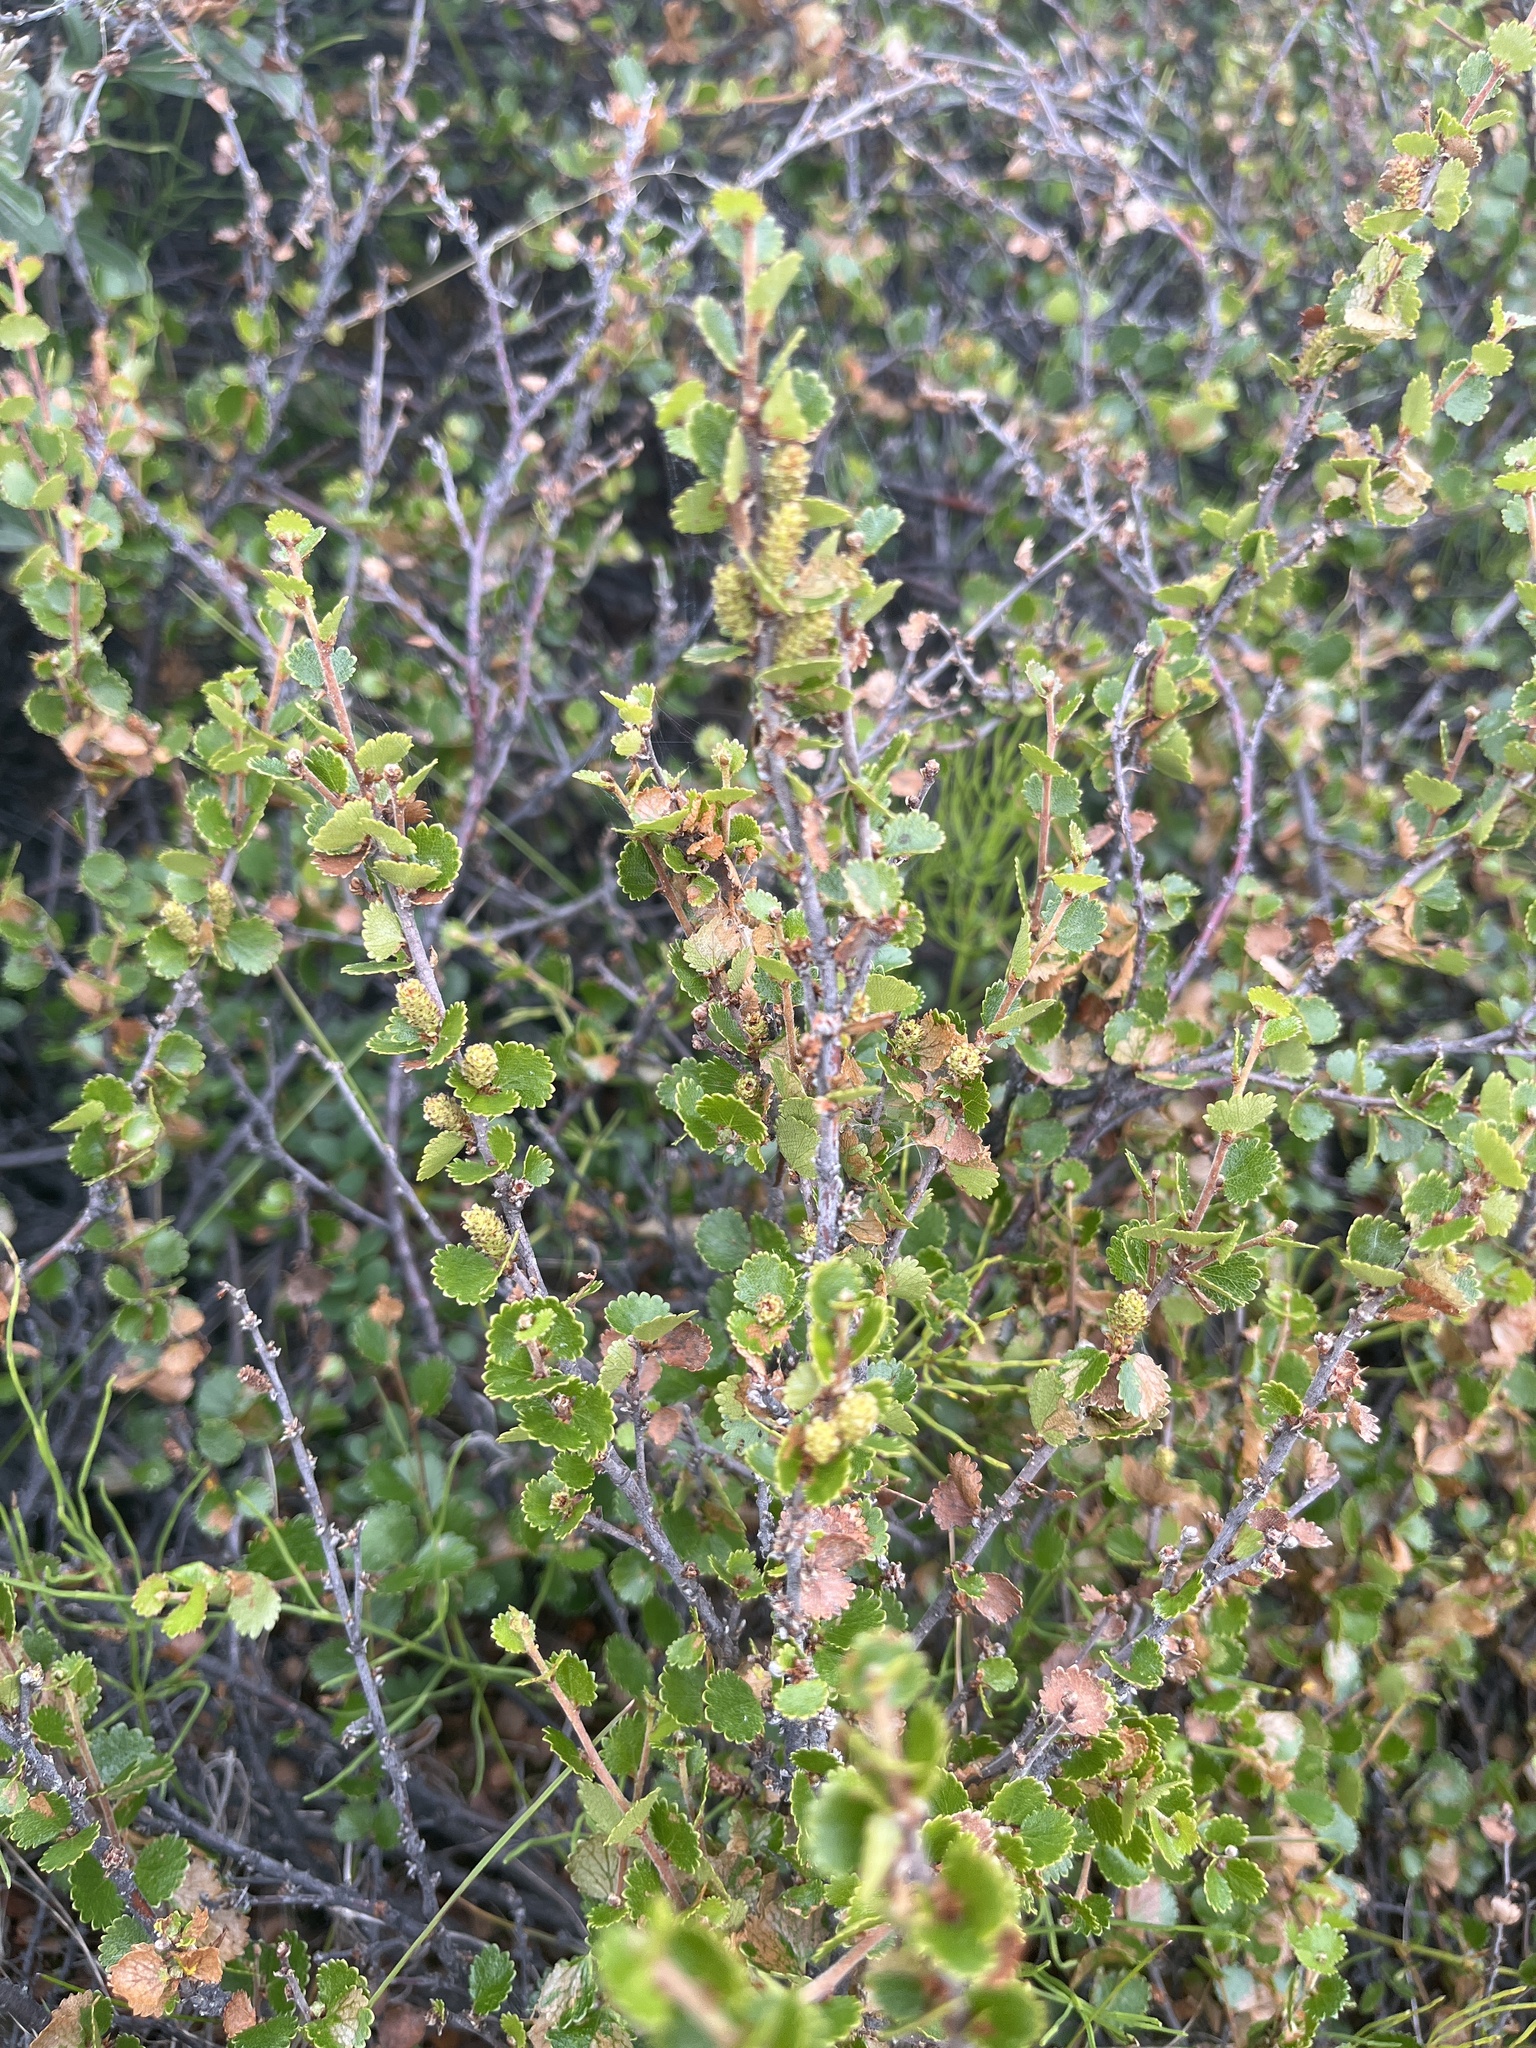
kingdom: Plantae
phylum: Tracheophyta
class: Magnoliopsida
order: Fagales
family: Betulaceae
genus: Betula
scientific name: Betula nana
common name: Arctic dwarf birch
